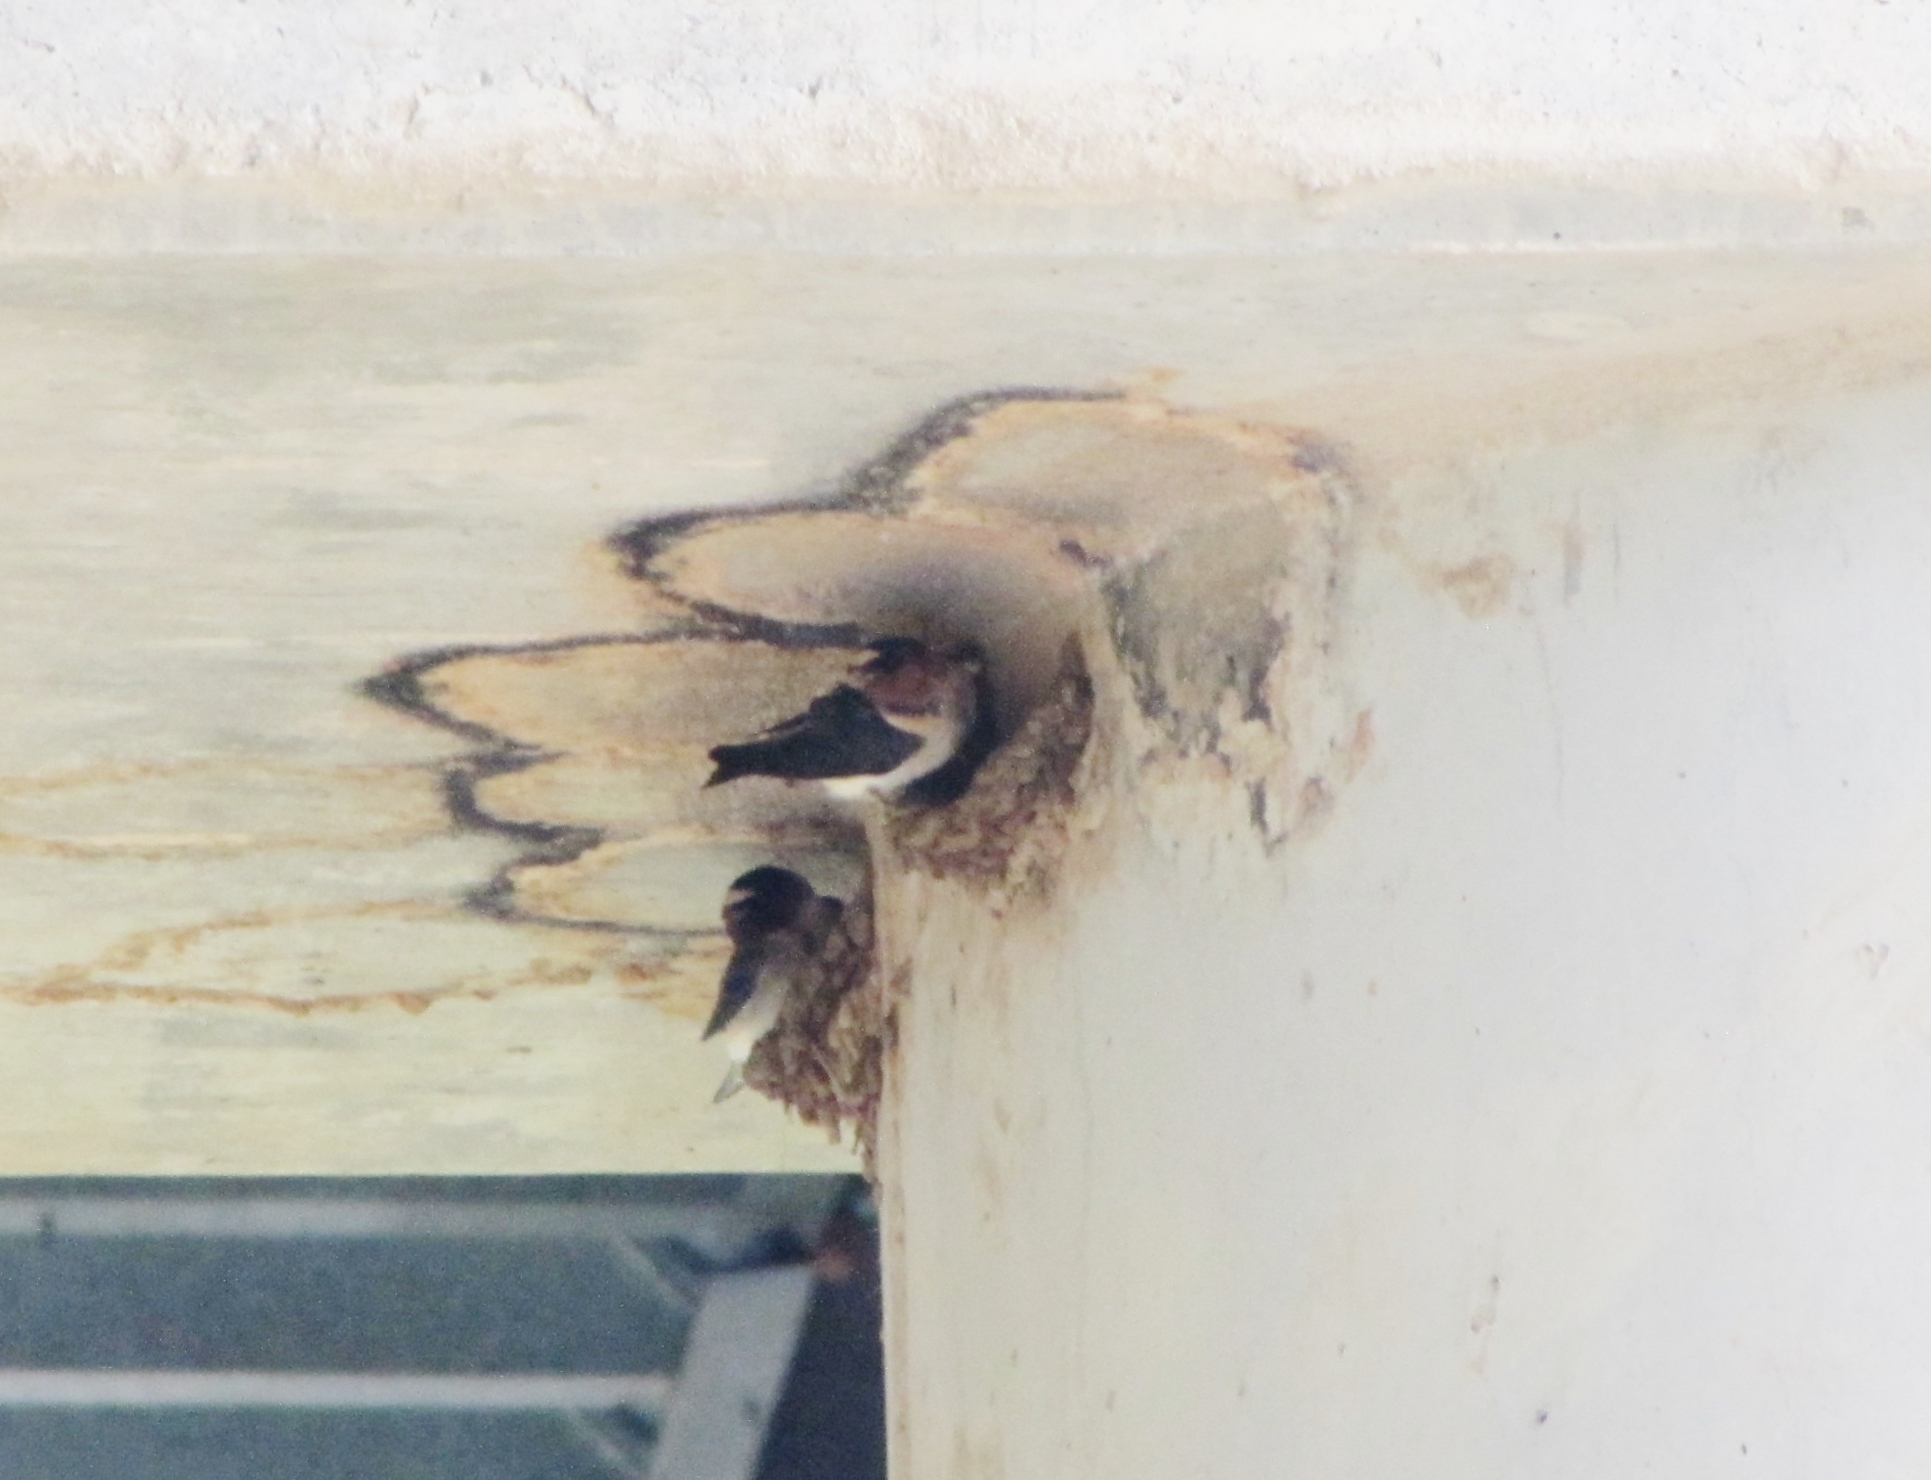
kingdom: Animalia
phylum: Chordata
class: Aves
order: Passeriformes
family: Hirundinidae
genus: Petrochelidon
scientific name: Petrochelidon pyrrhonota
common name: American cliff swallow
